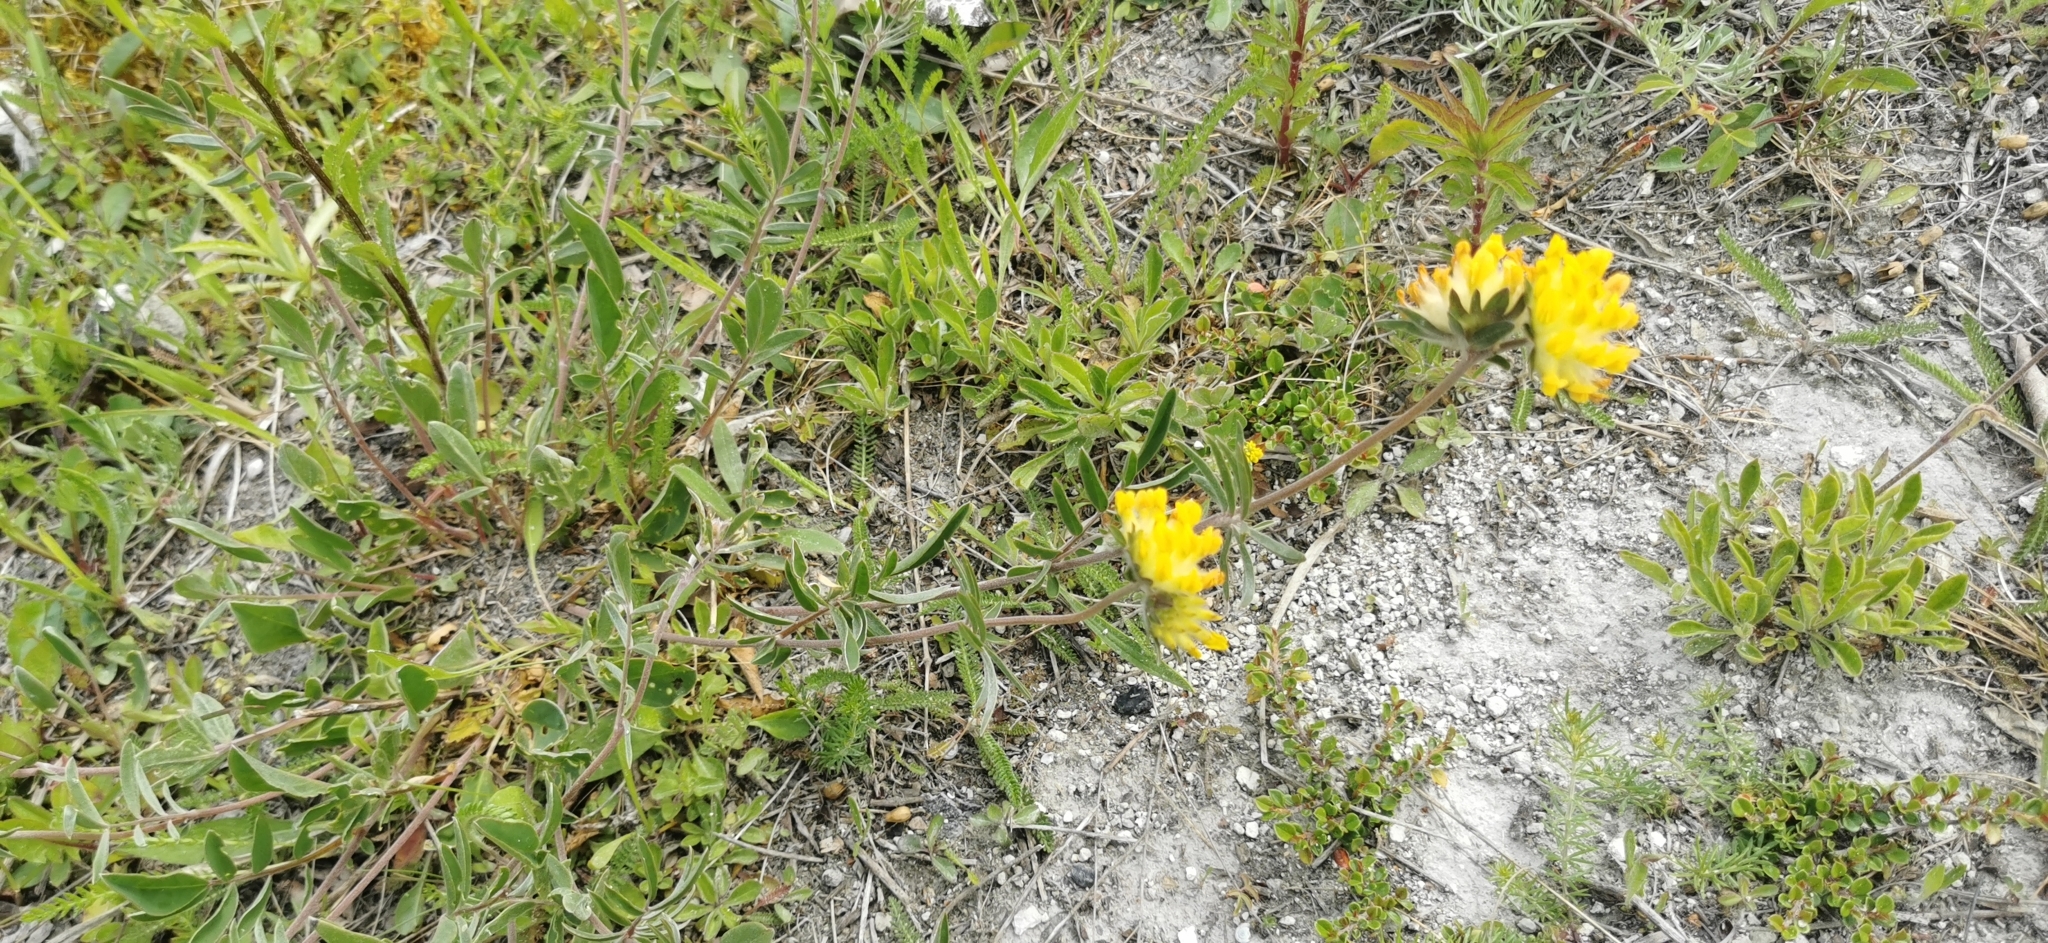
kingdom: Plantae
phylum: Tracheophyta
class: Magnoliopsida
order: Fabales
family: Fabaceae
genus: Anthyllis
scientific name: Anthyllis vulneraria
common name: Kidney vetch
